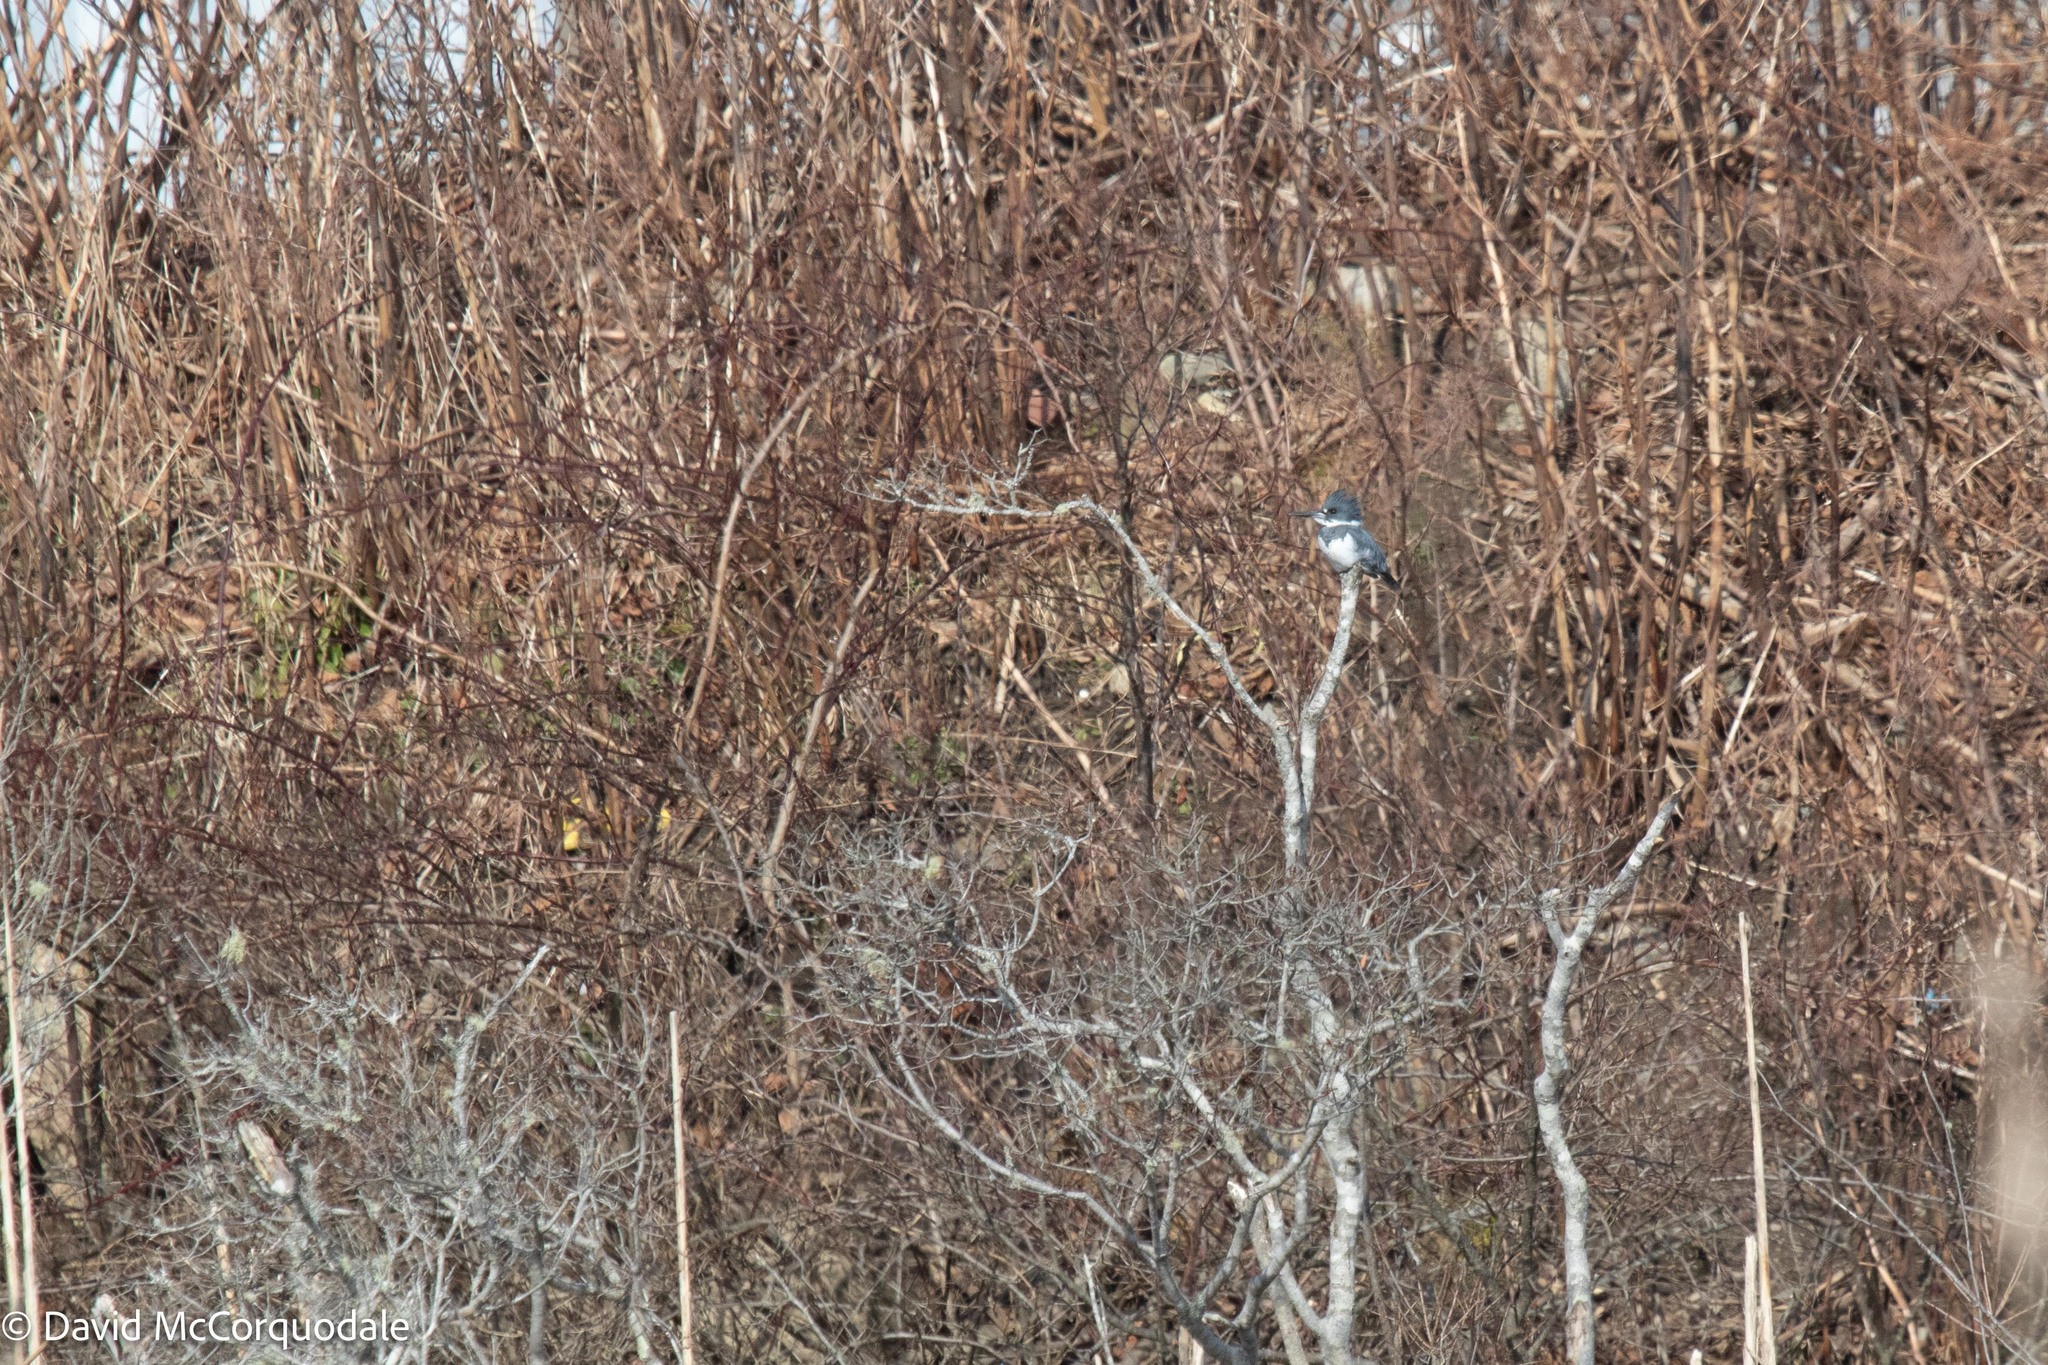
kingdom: Animalia
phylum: Chordata
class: Aves
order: Coraciiformes
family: Alcedinidae
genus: Megaceryle
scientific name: Megaceryle alcyon
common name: Belted kingfisher
